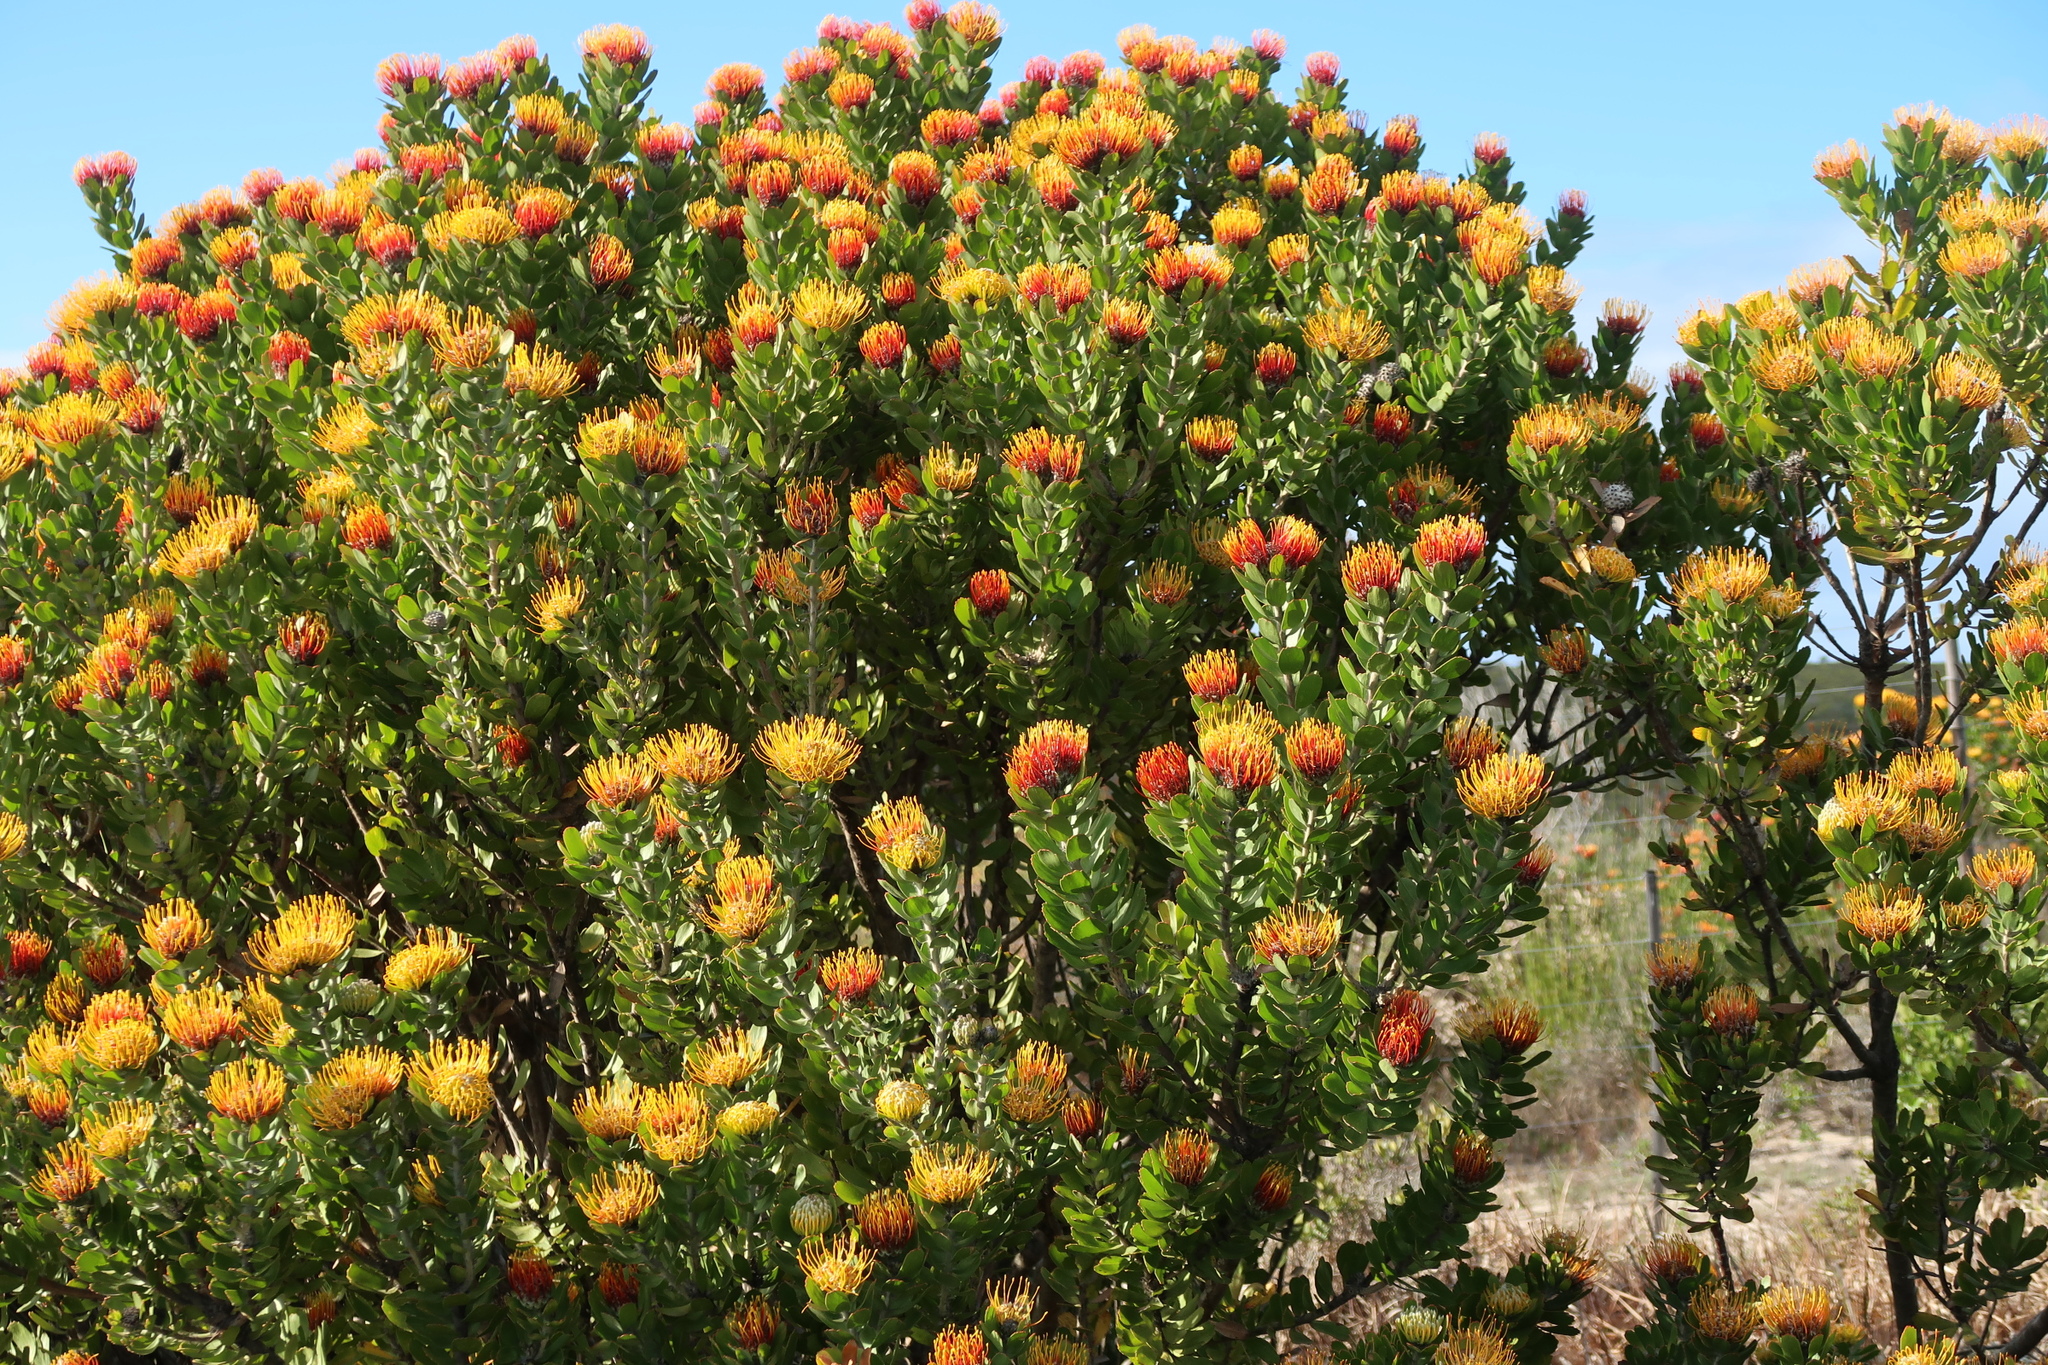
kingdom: Plantae
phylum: Tracheophyta
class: Magnoliopsida
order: Proteales
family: Proteaceae
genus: Leucospermum
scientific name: Leucospermum praecox
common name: Mossel bay pincushion
